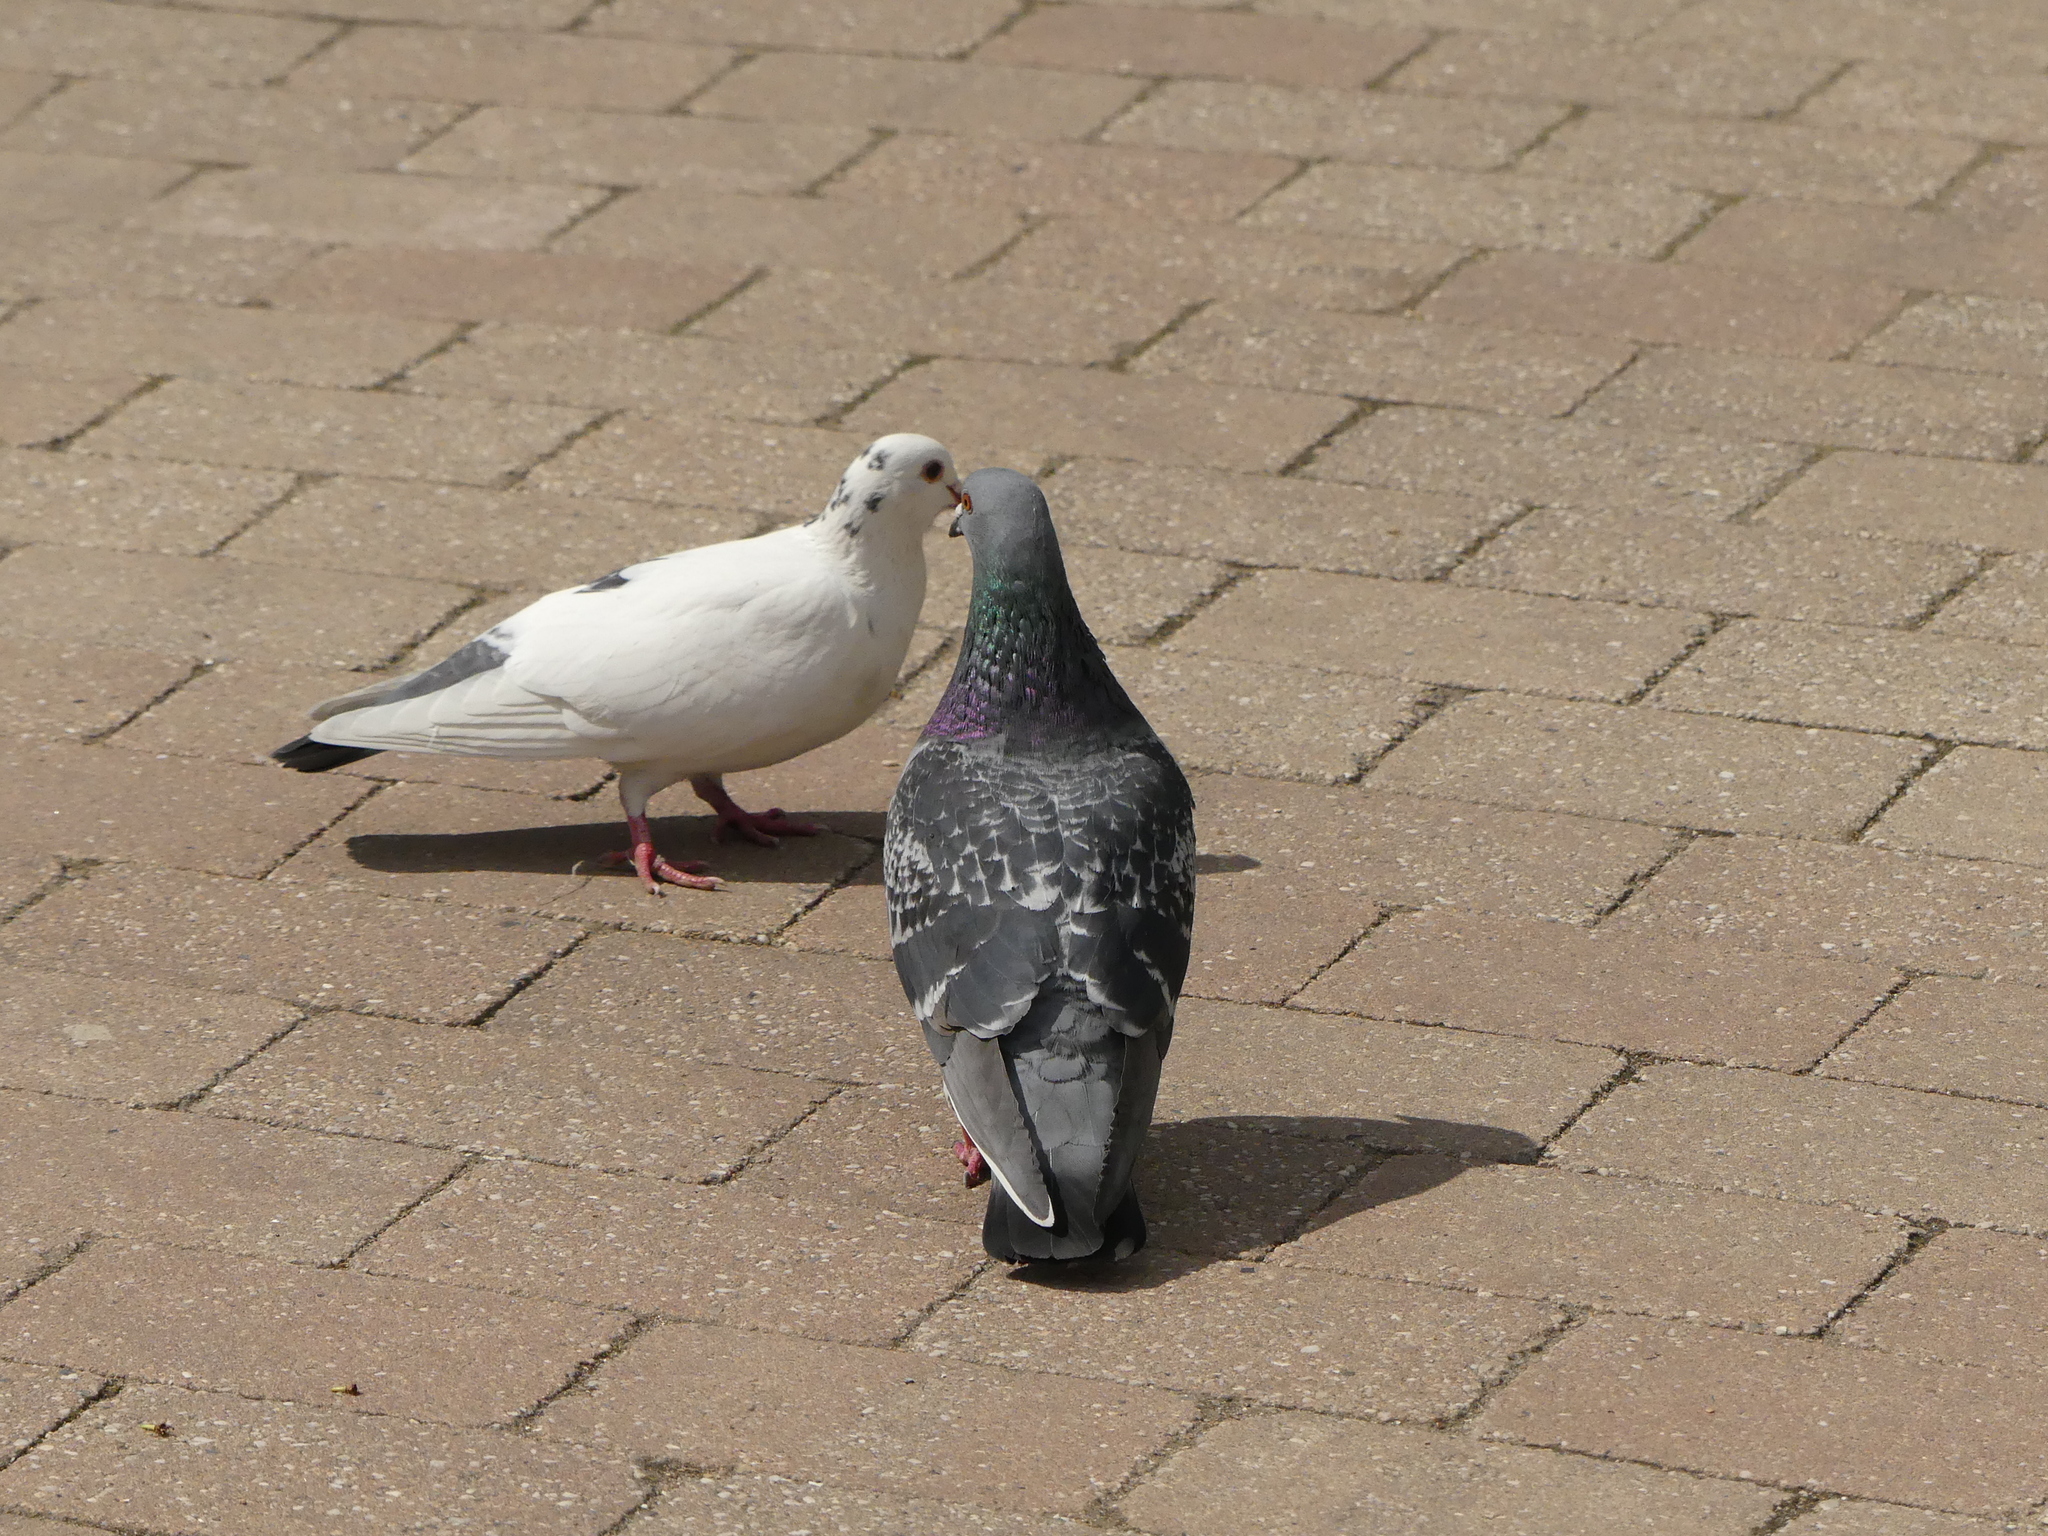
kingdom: Animalia
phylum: Chordata
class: Aves
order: Columbiformes
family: Columbidae
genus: Columba
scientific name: Columba livia
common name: Rock pigeon
